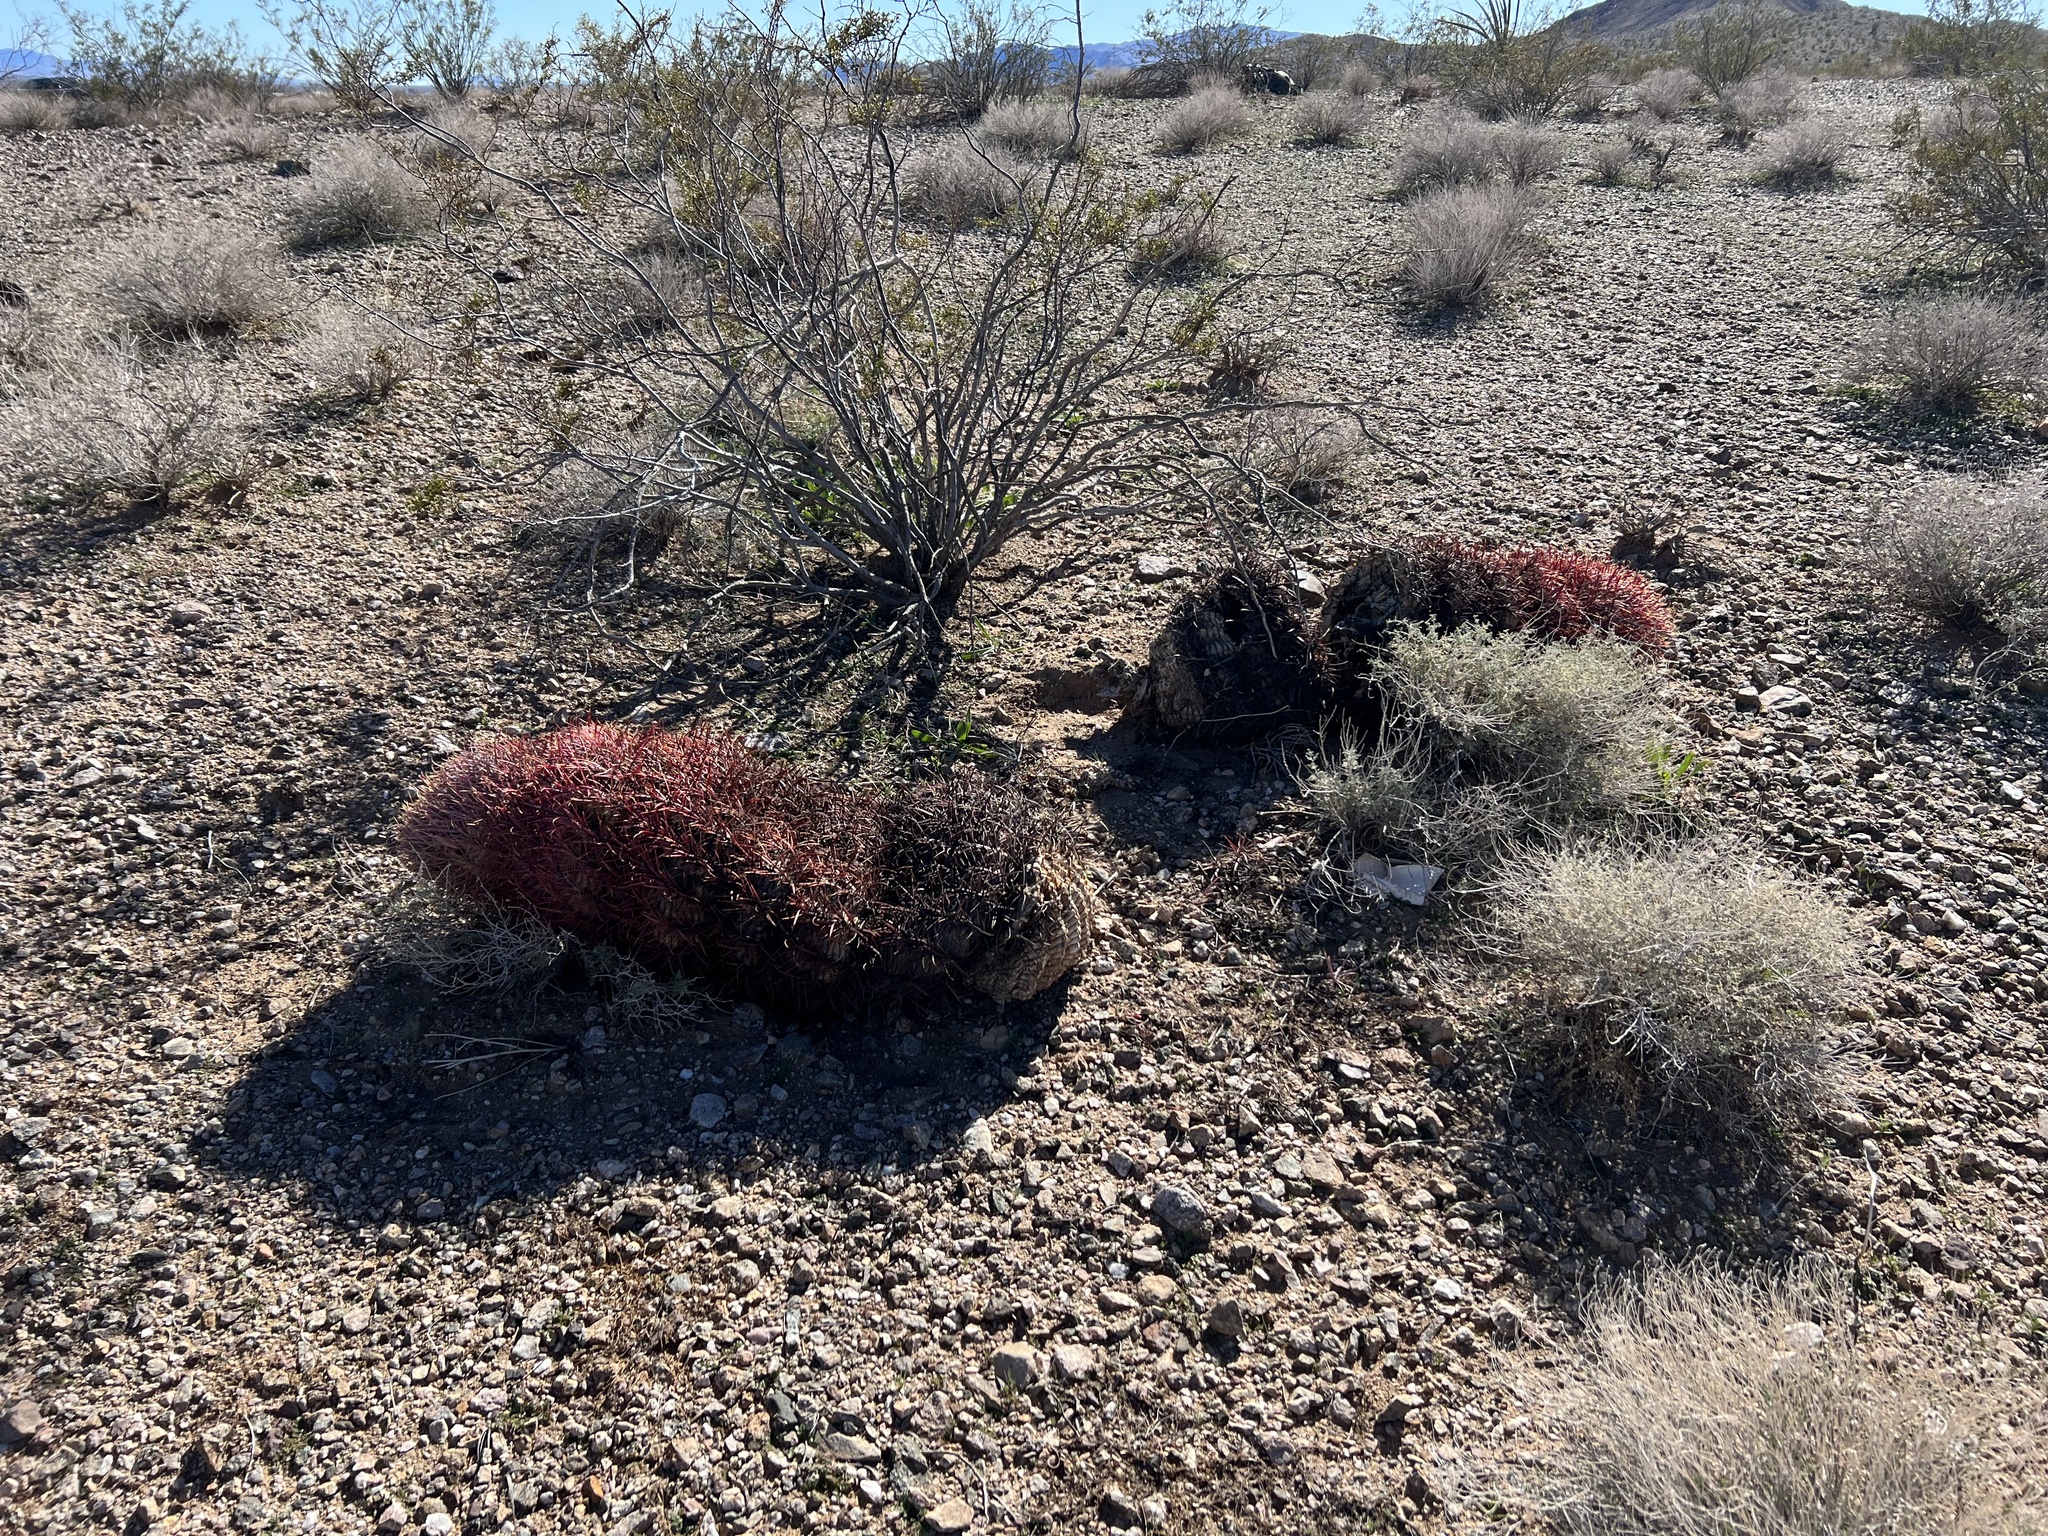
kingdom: Plantae
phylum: Tracheophyta
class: Magnoliopsida
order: Caryophyllales
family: Cactaceae
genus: Ferocactus
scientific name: Ferocactus cylindraceus
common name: California barrel cactus
